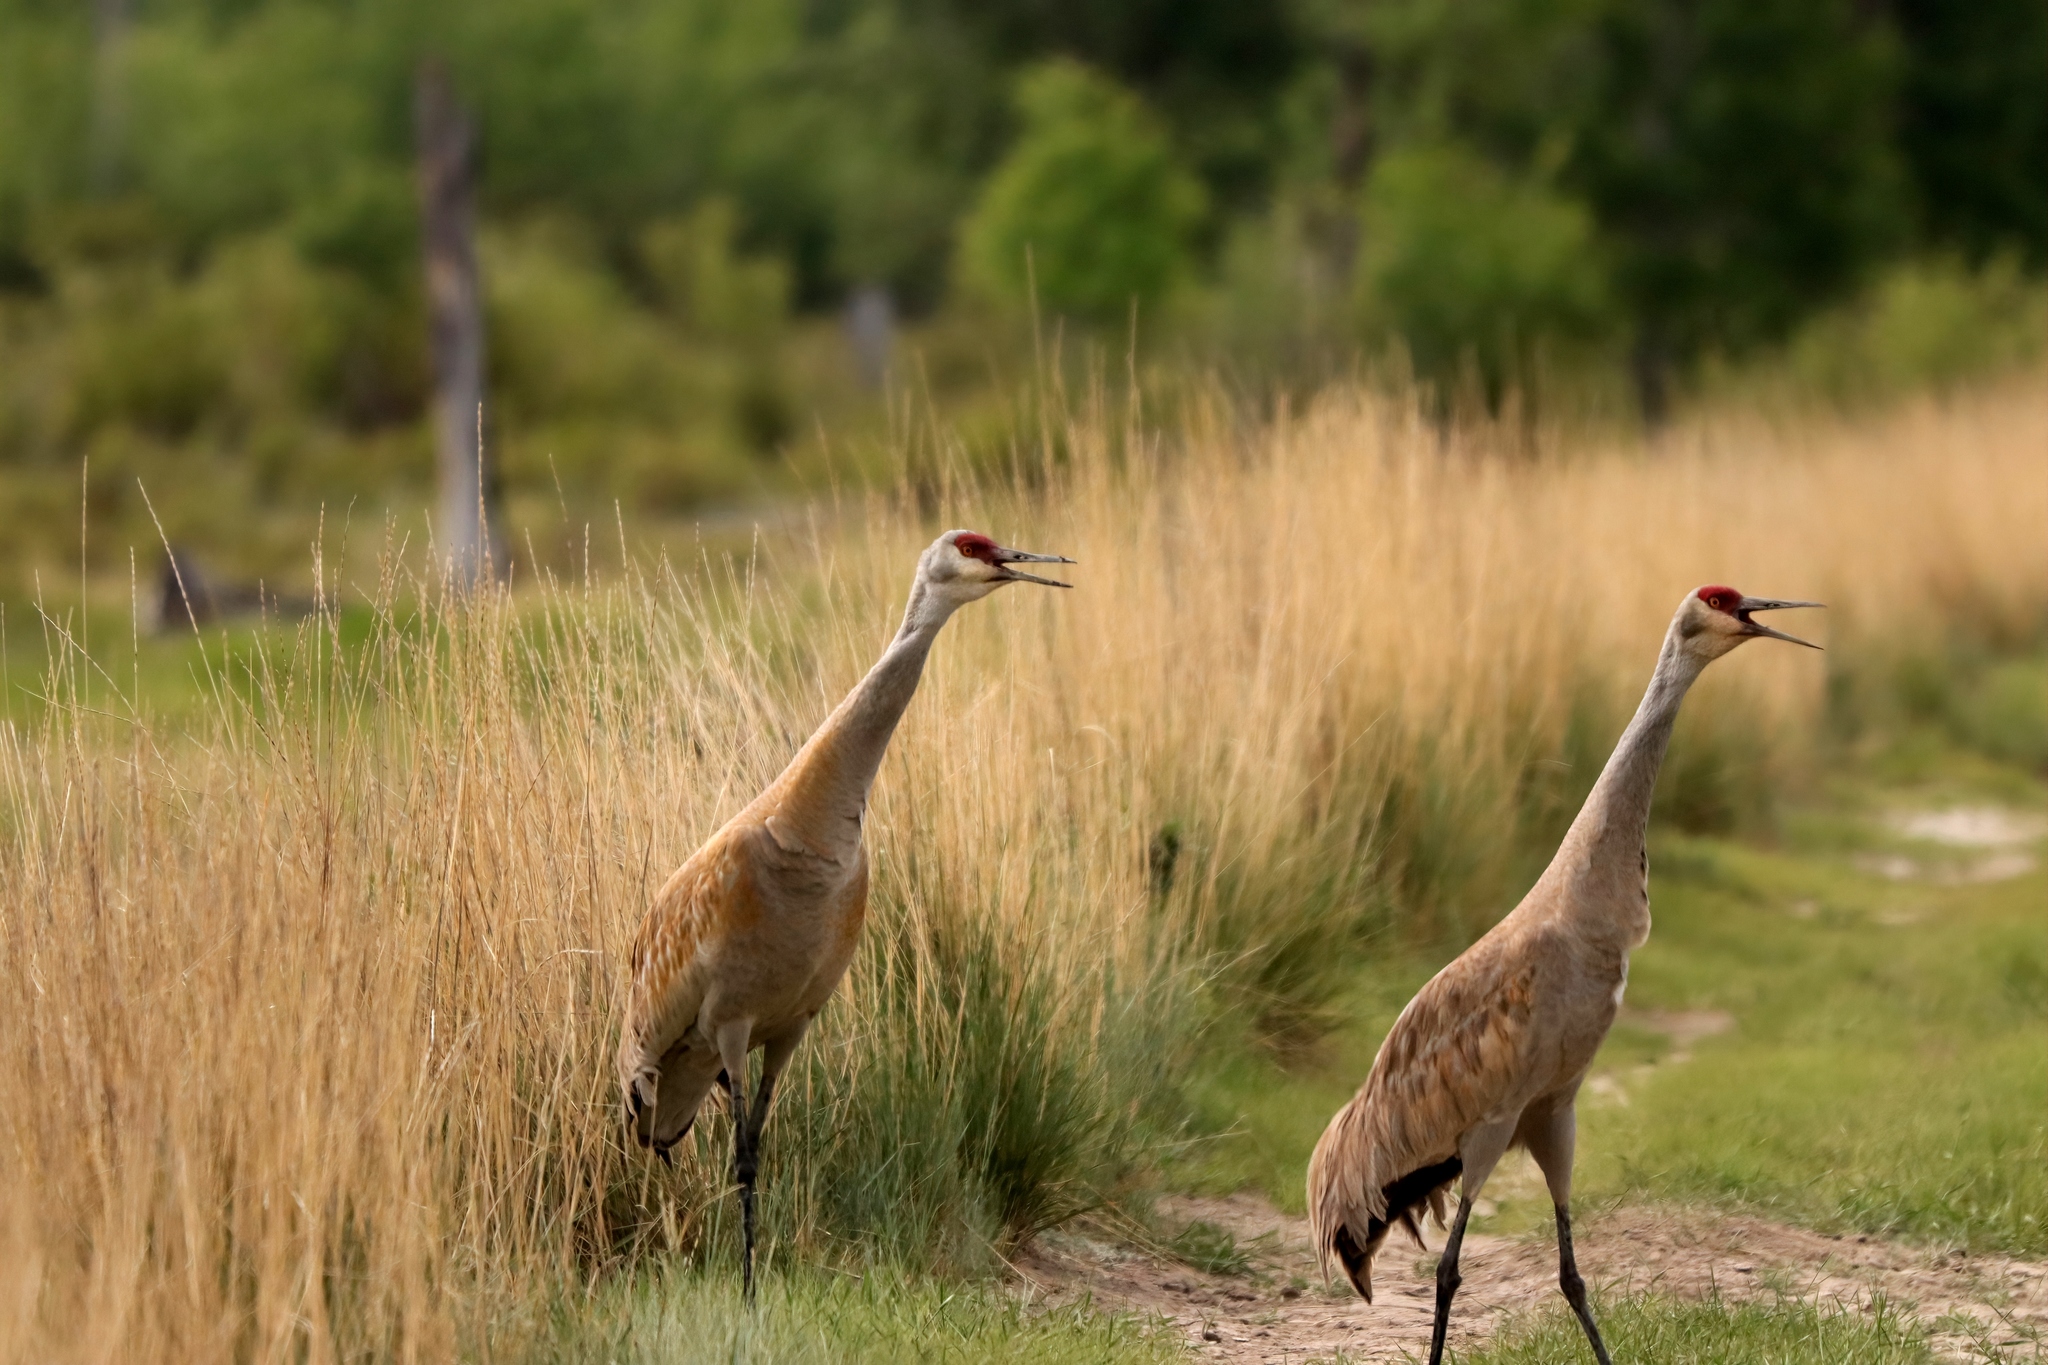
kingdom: Animalia
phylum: Chordata
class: Aves
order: Gruiformes
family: Gruidae
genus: Grus
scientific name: Grus canadensis
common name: Sandhill crane
